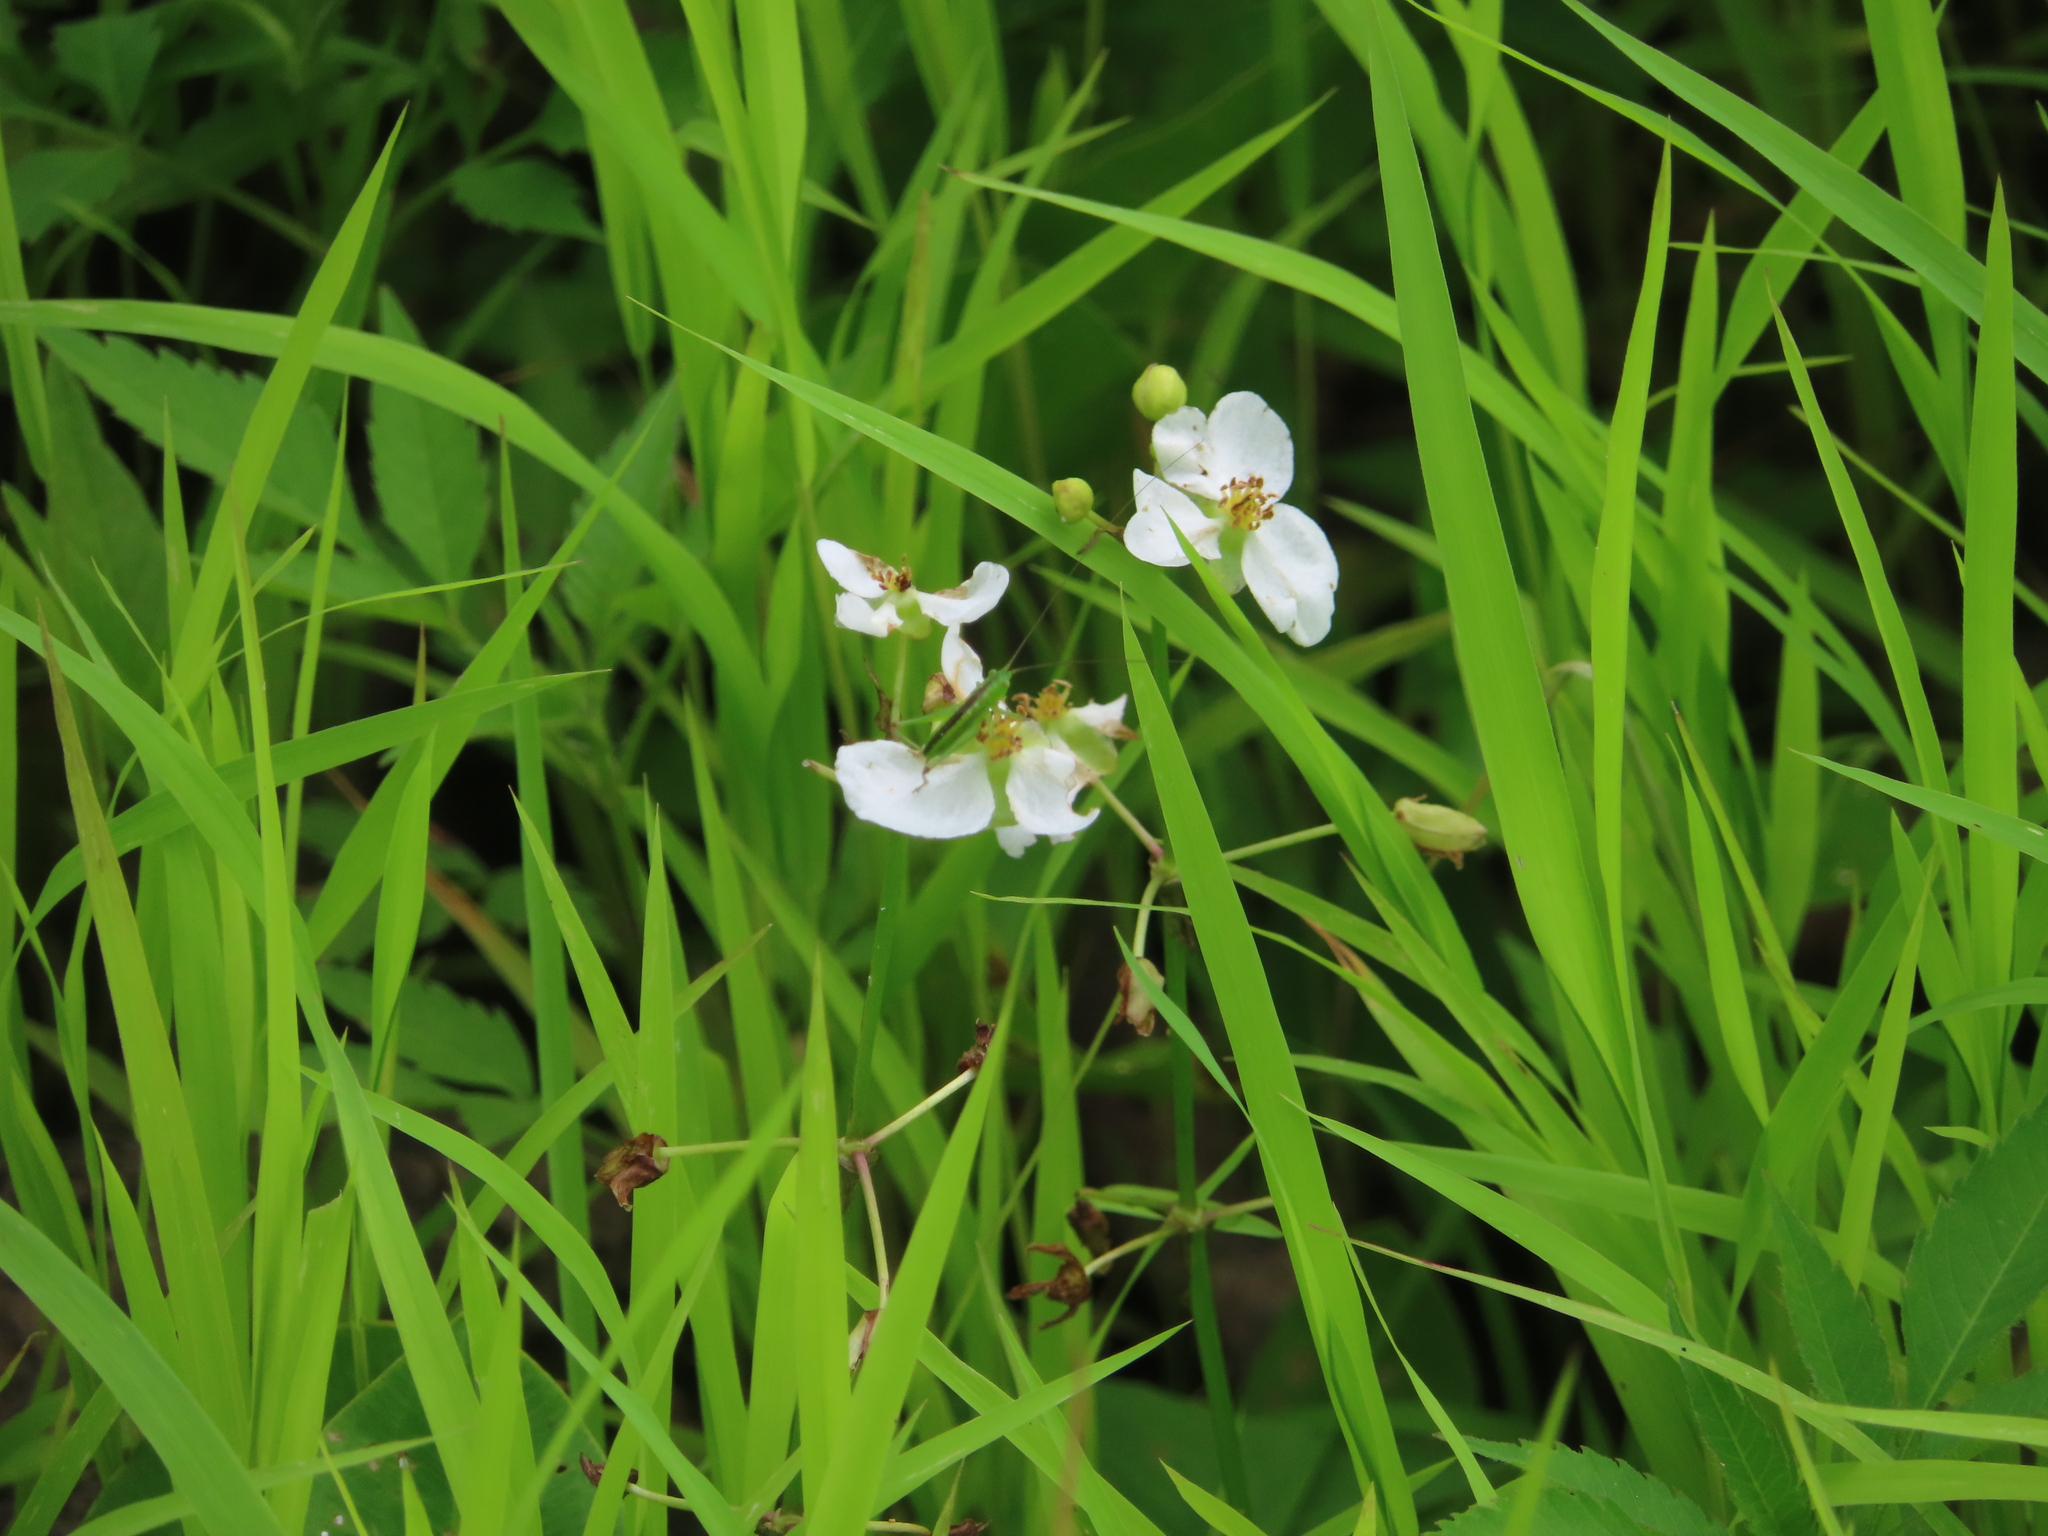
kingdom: Plantae
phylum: Tracheophyta
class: Liliopsida
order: Alismatales
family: Alismataceae
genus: Sagittaria
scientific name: Sagittaria latifolia
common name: Duck-potato
